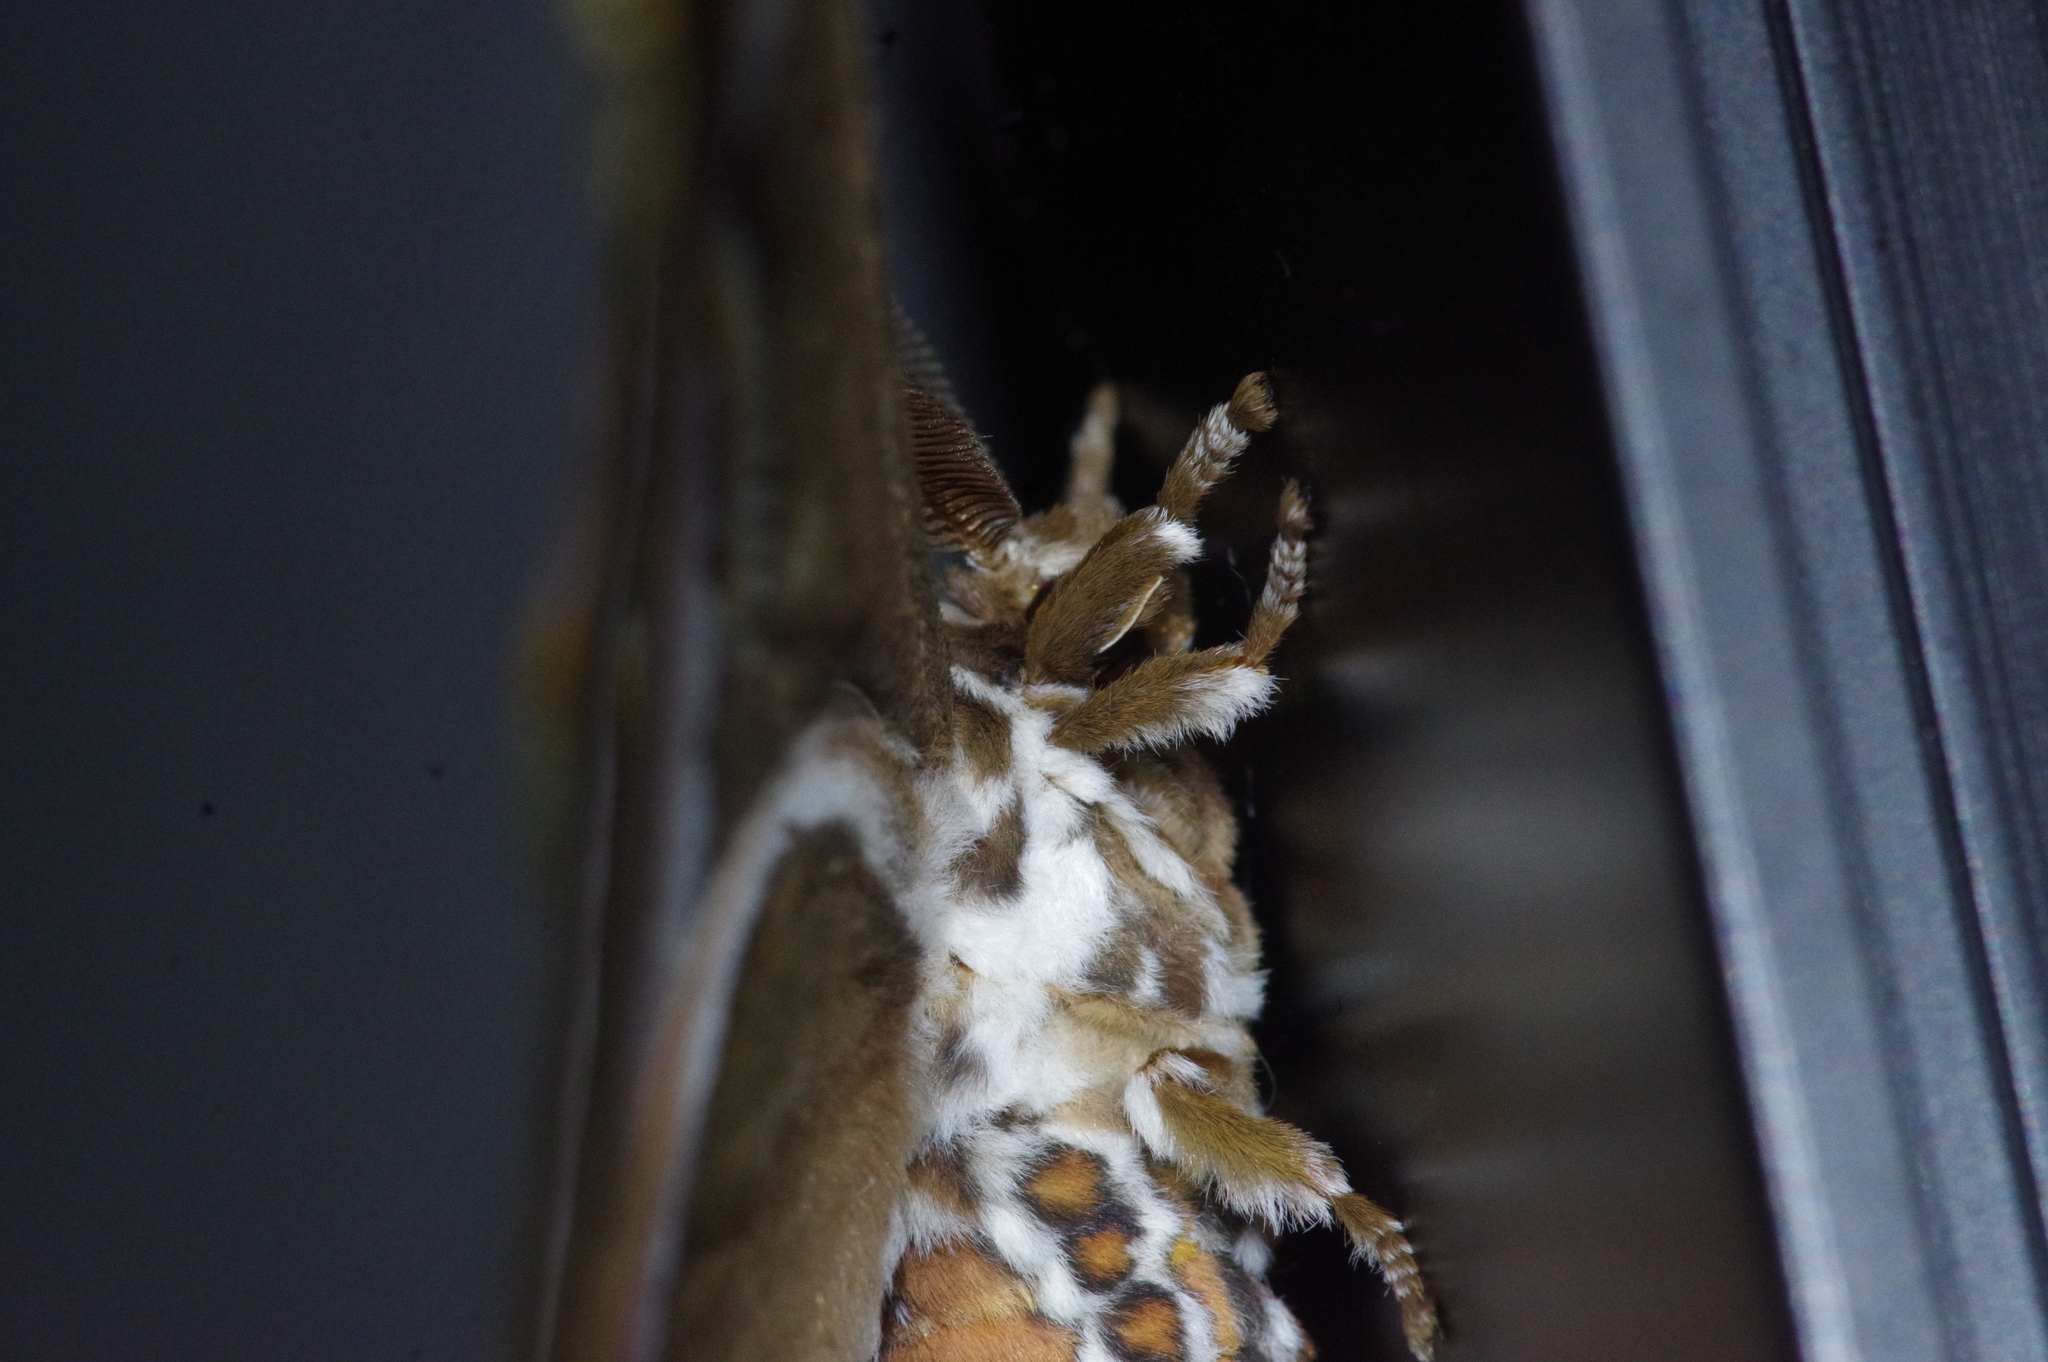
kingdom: Animalia
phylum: Arthropoda
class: Insecta
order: Lepidoptera
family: Saturniidae
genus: Samia
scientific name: Samia cynthia
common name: Ailanthus silkmoth
